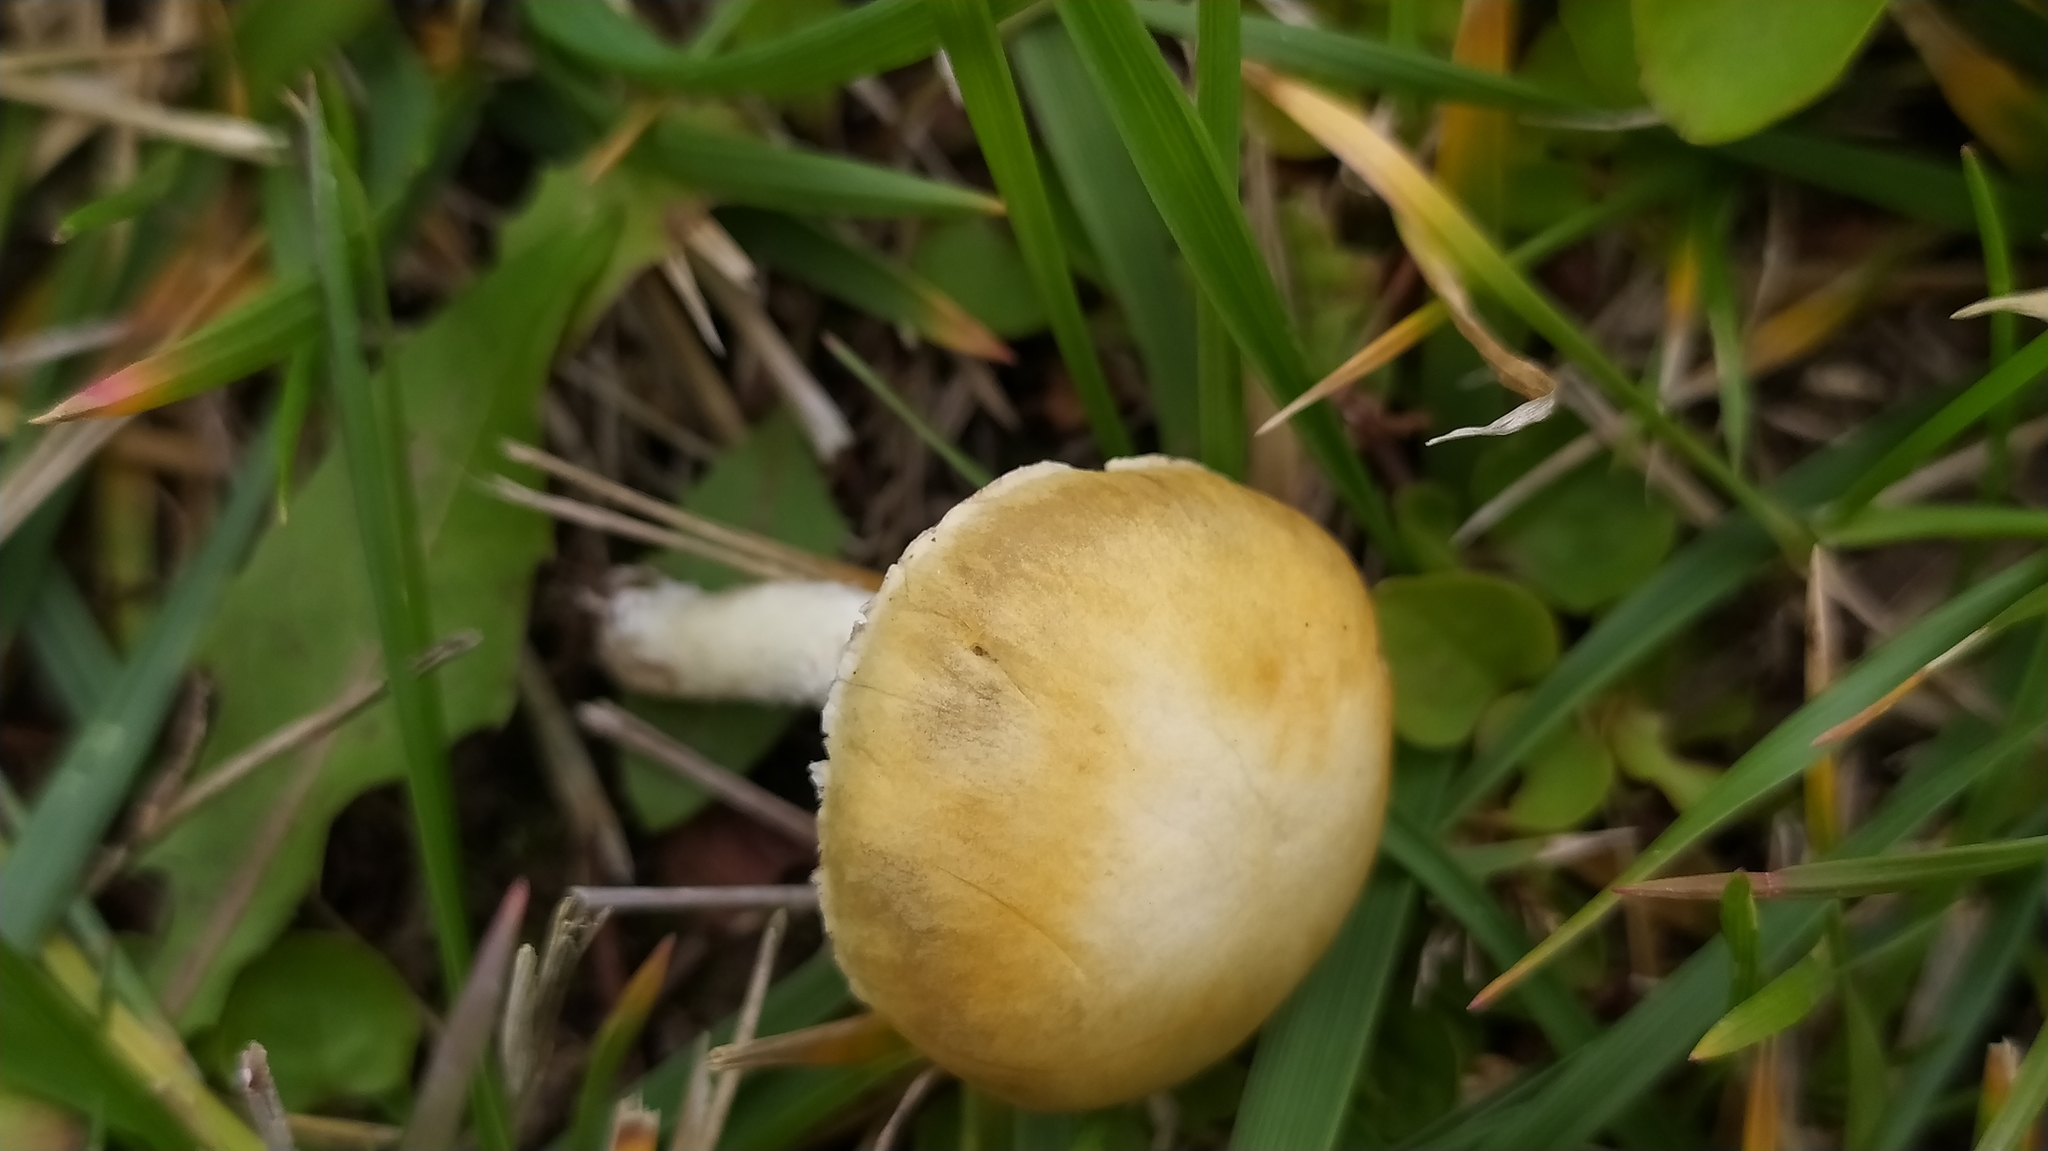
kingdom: Fungi
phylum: Basidiomycota
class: Agaricomycetes
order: Agaricales
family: Hymenogastraceae
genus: Psilocybe
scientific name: Psilocybe coronilla
